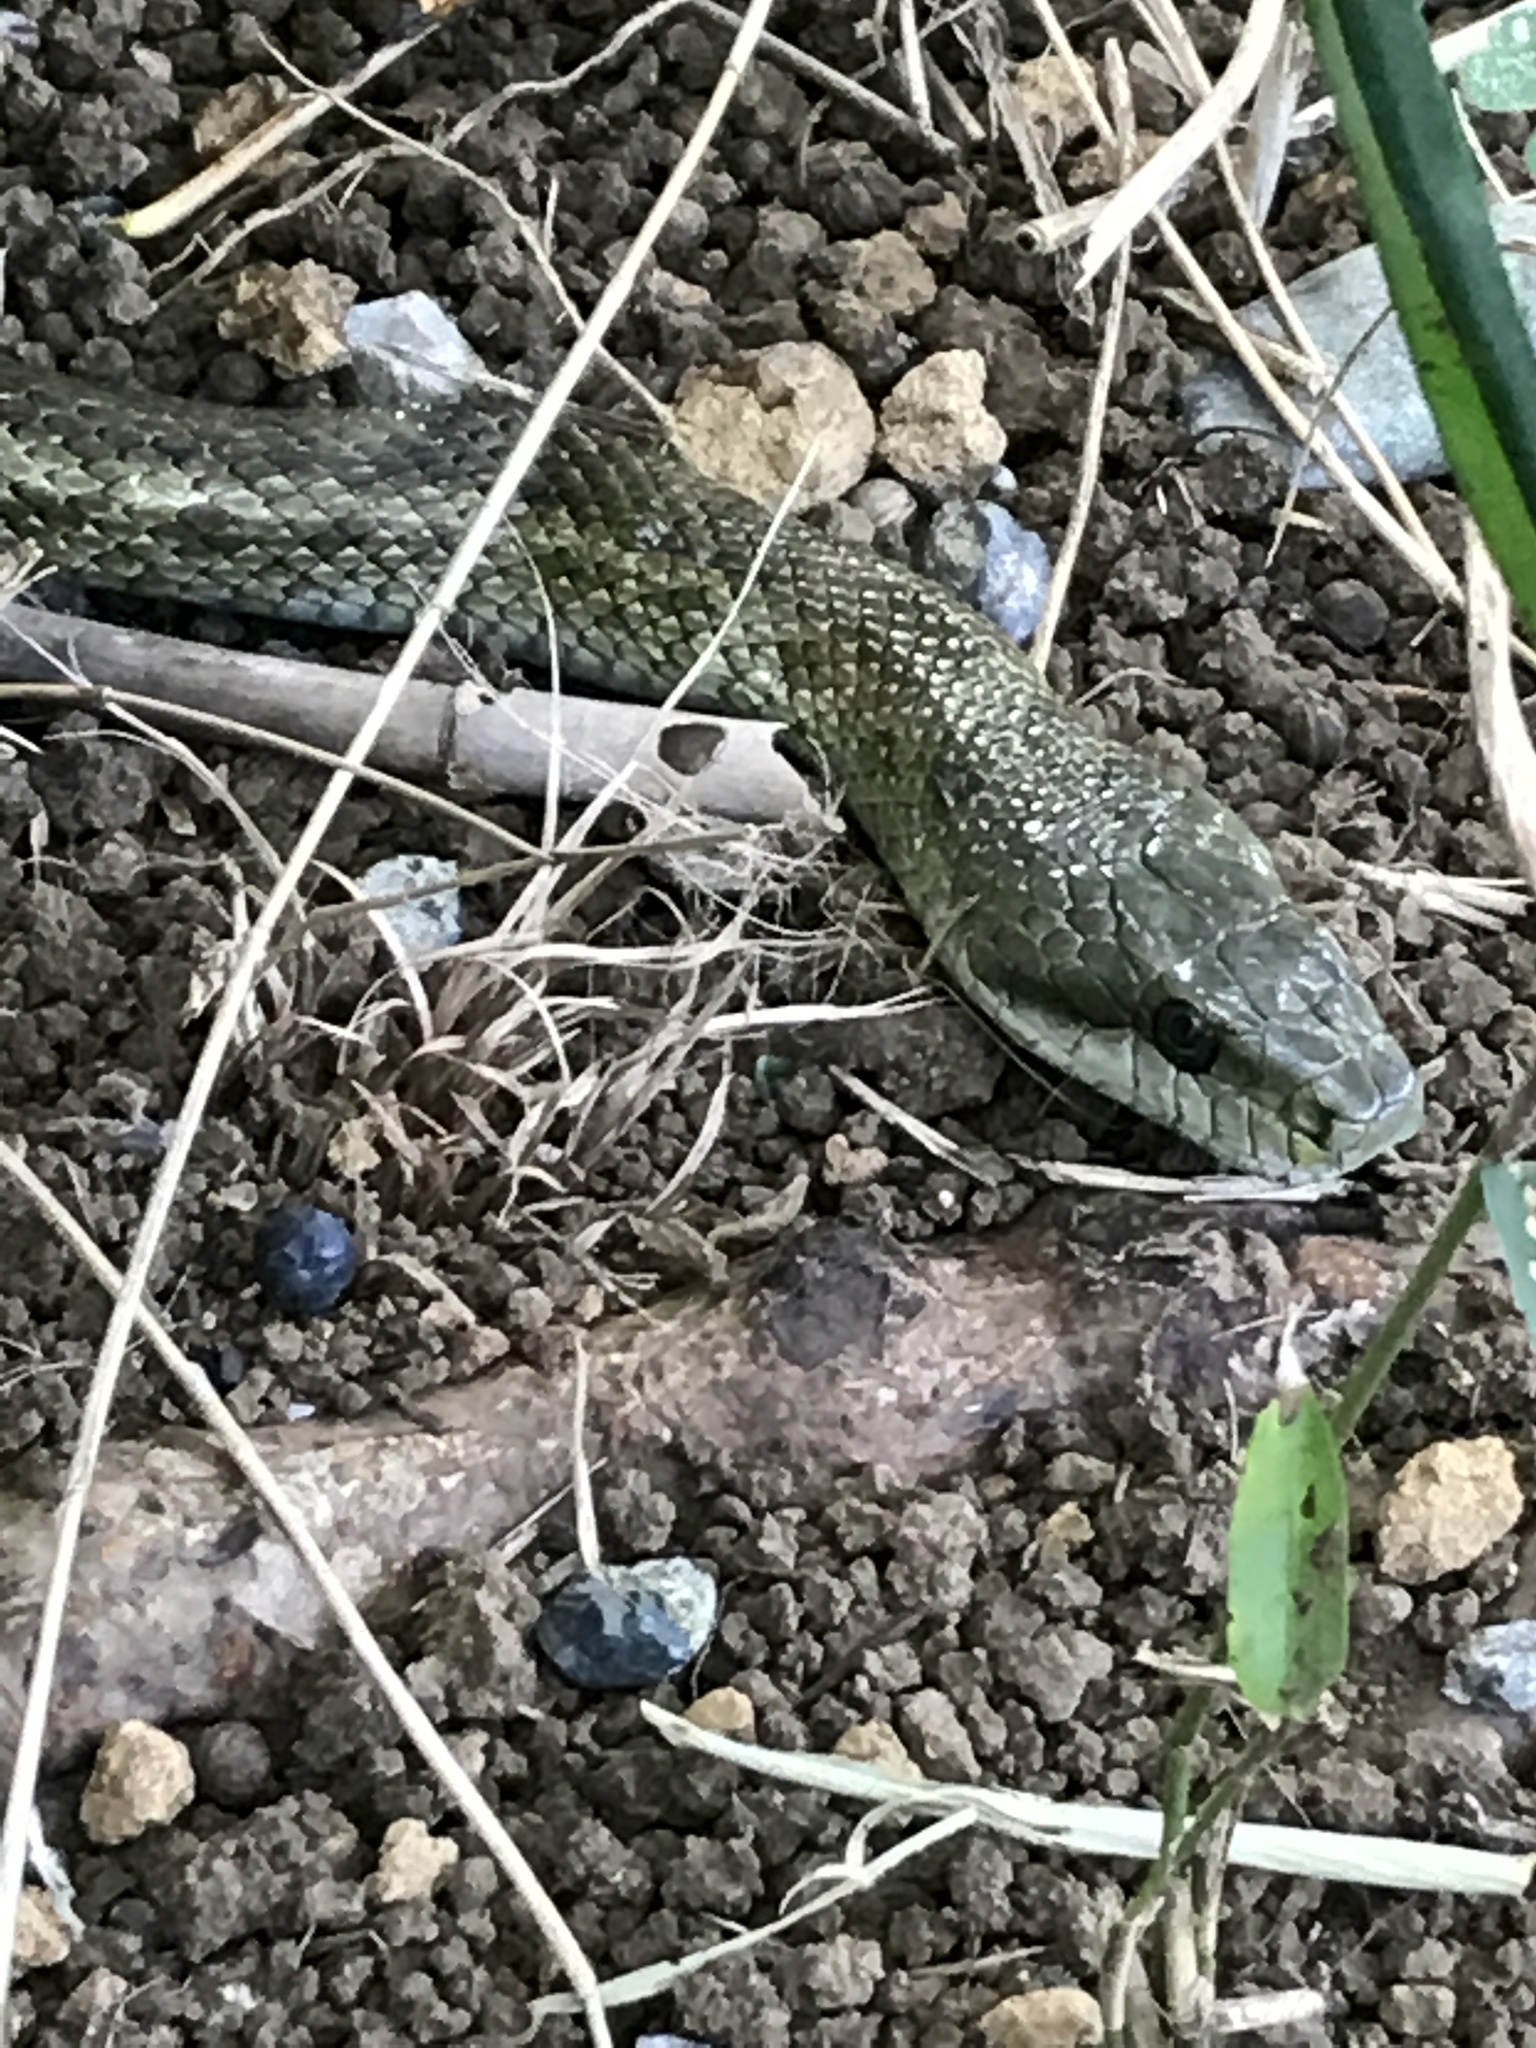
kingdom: Animalia
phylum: Chordata
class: Squamata
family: Colubridae
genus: Elaphe
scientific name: Elaphe climacophora
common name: Japanese ratsnake
